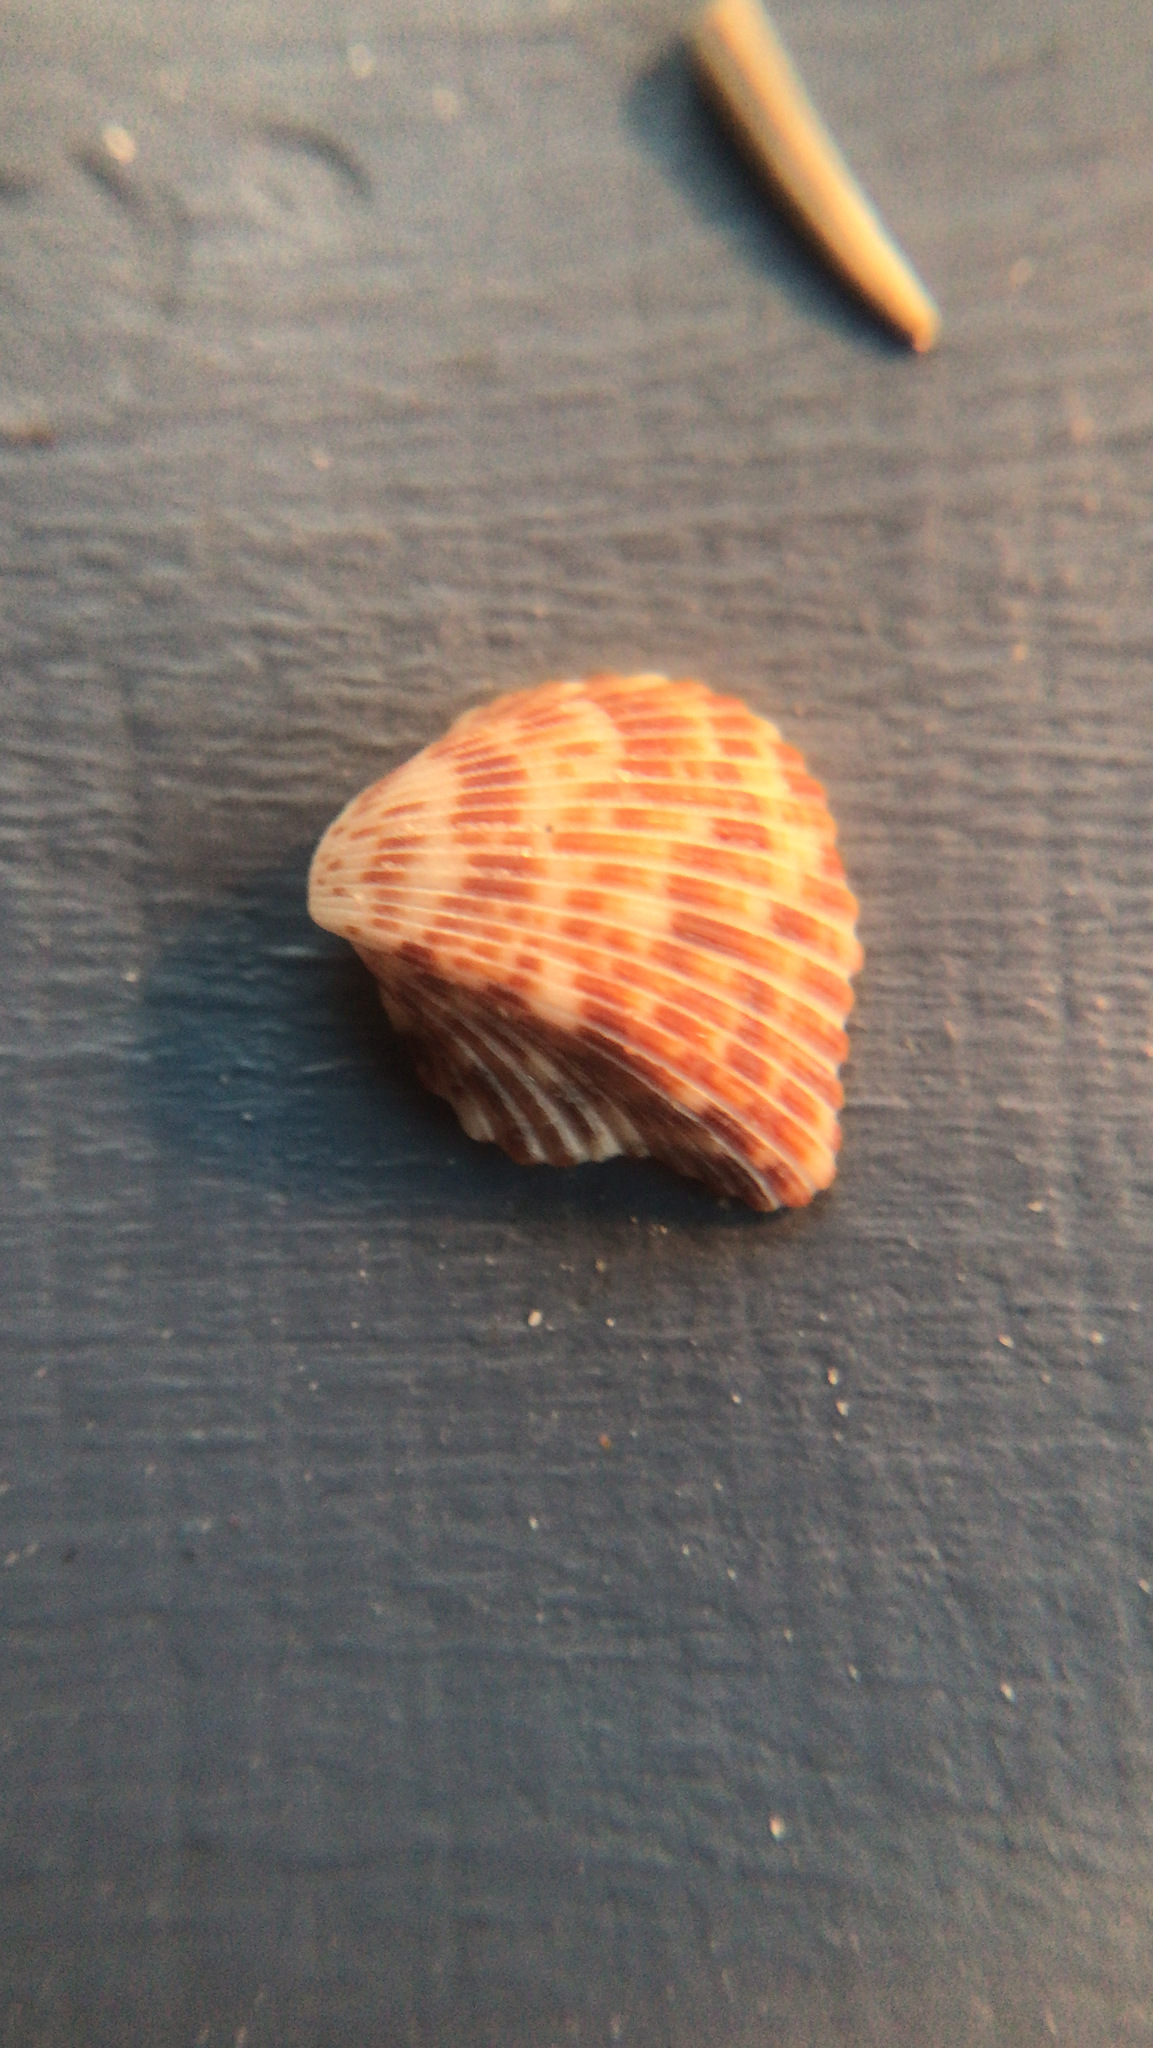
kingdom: Animalia
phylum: Mollusca
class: Bivalvia
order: Cardiida
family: Cardiidae
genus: Americardia
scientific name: Americardia columbella
